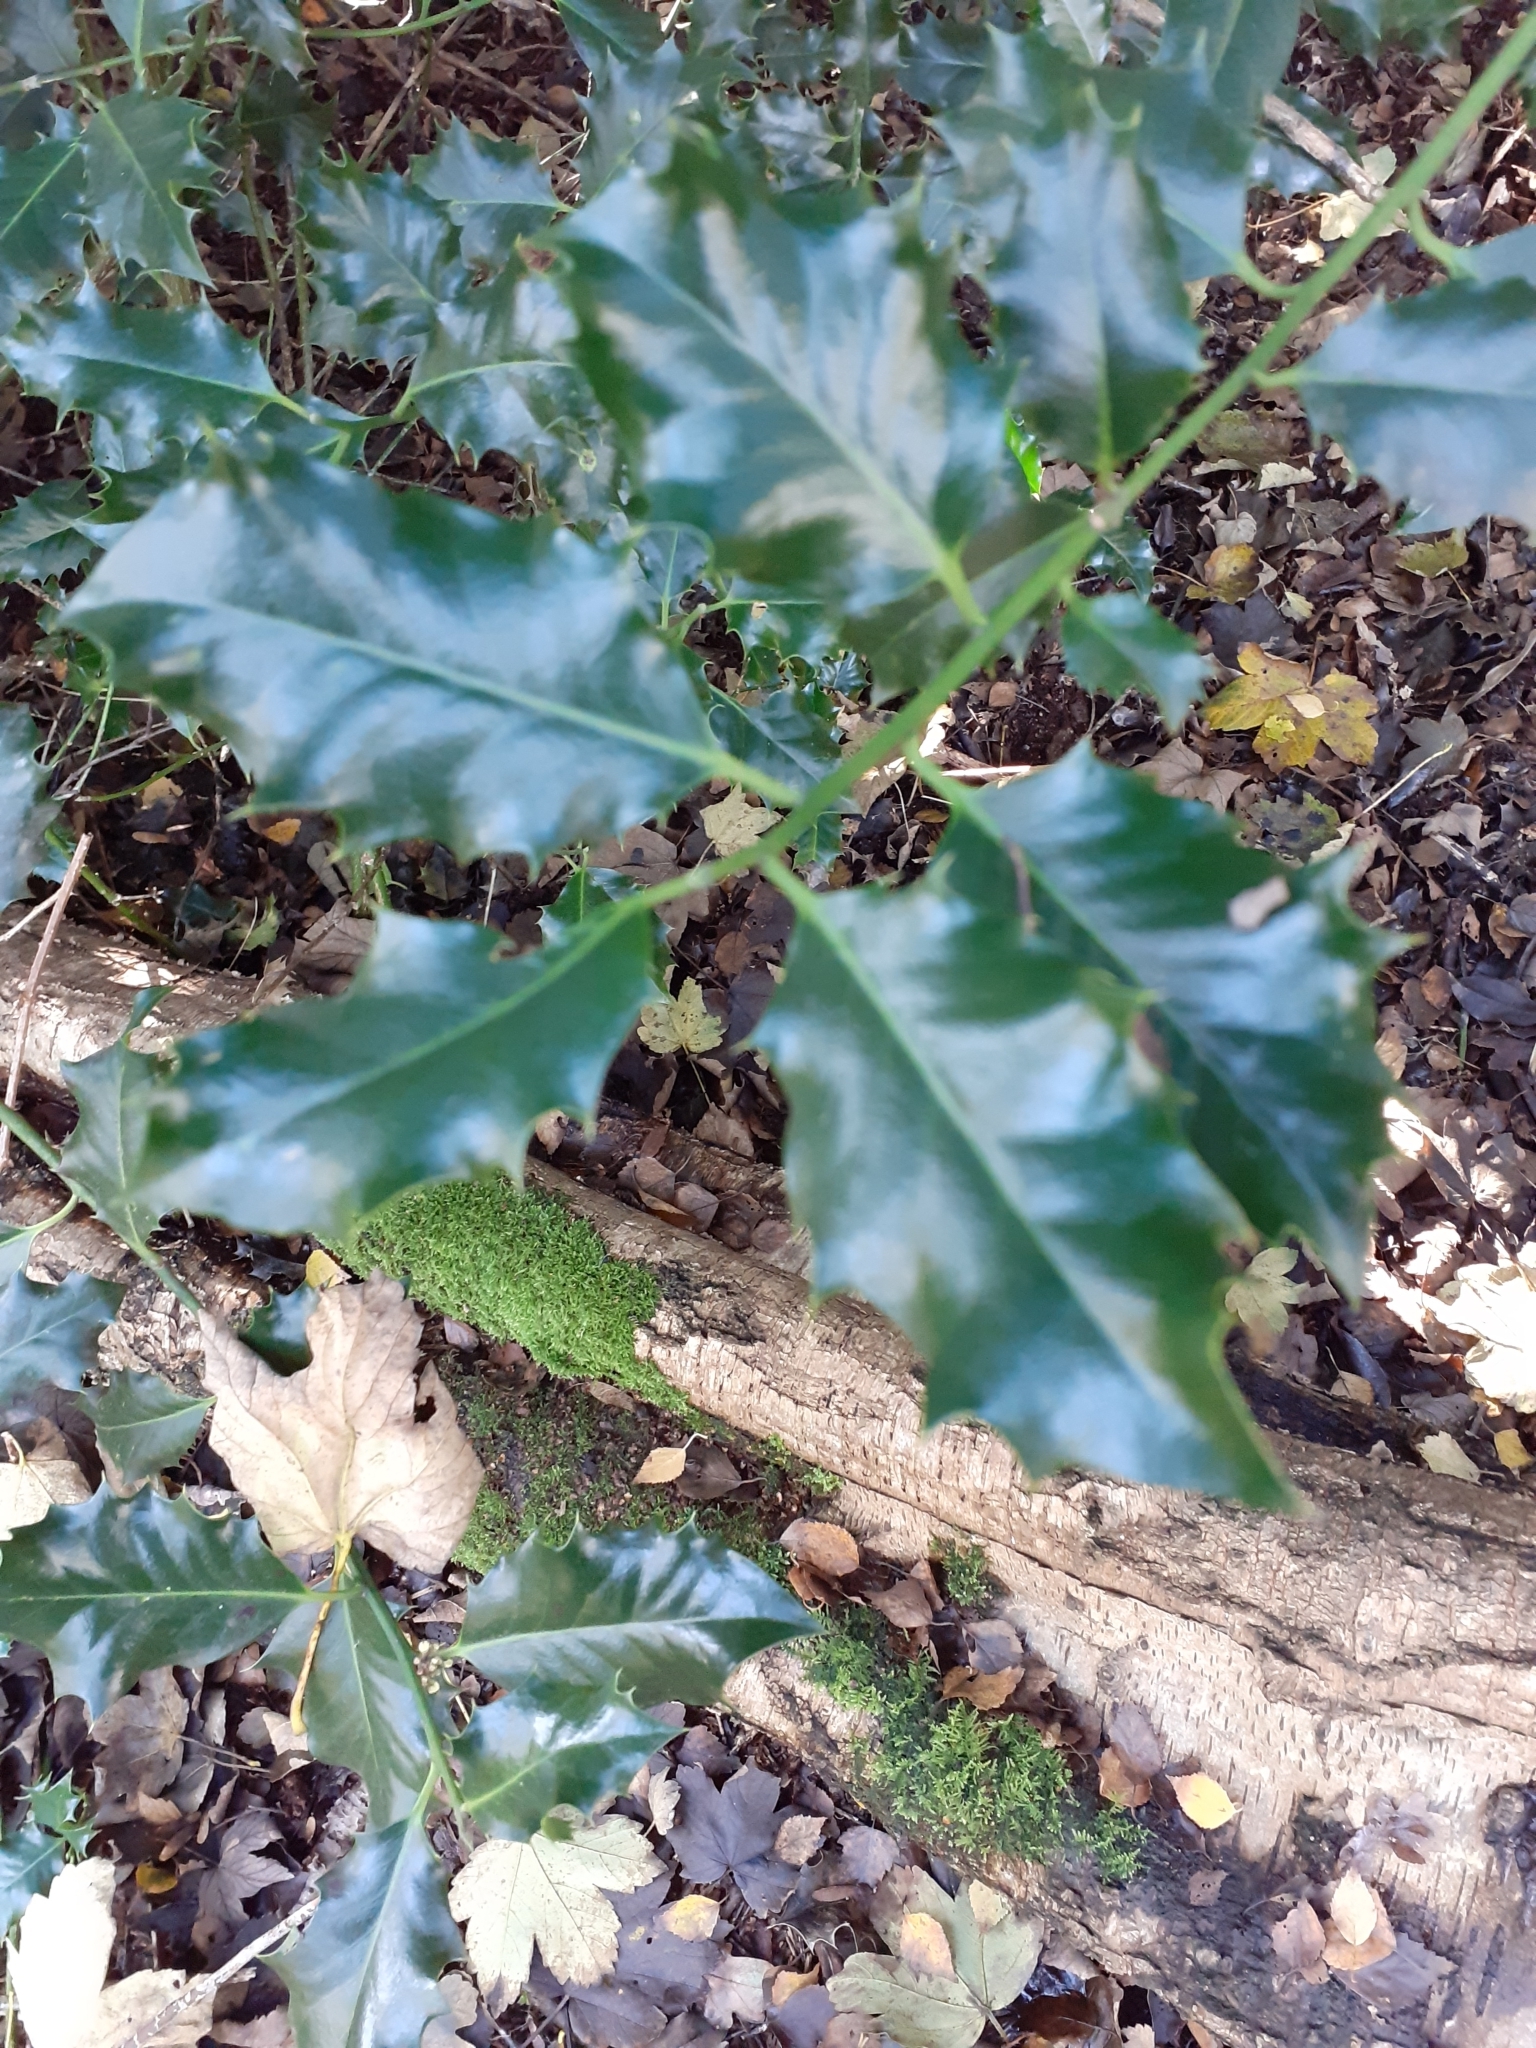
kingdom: Plantae
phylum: Tracheophyta
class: Magnoliopsida
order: Aquifoliales
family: Aquifoliaceae
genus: Ilex
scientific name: Ilex aquifolium
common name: English holly
